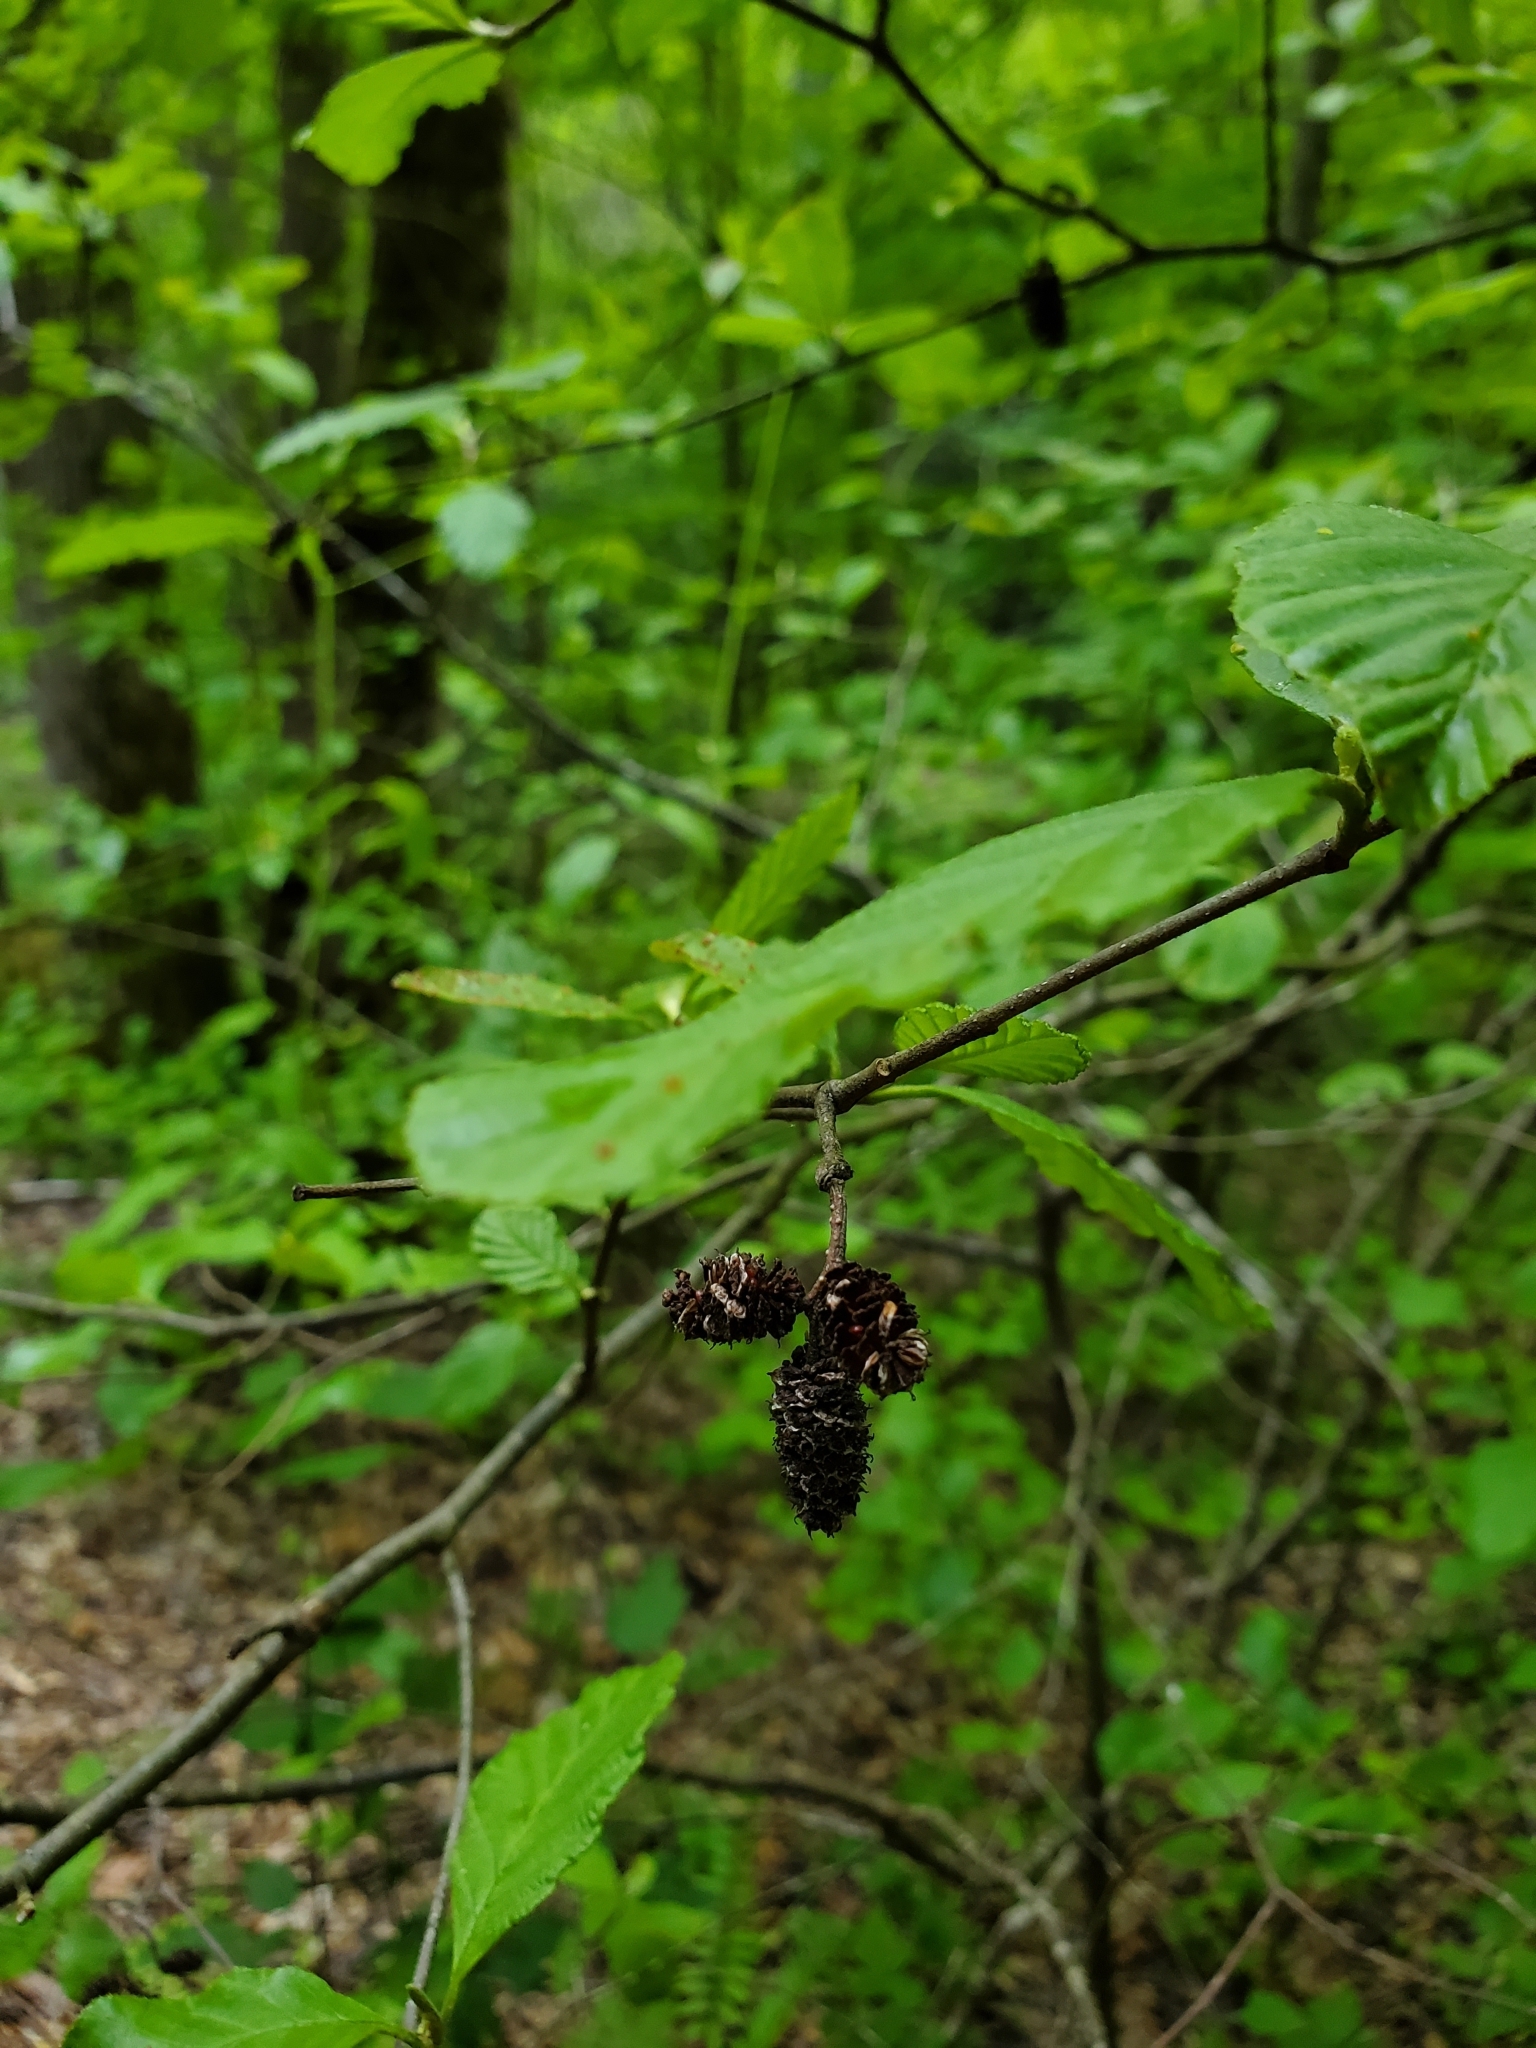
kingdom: Plantae
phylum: Tracheophyta
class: Magnoliopsida
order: Fagales
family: Betulaceae
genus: Alnus
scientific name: Alnus serrulata
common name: Hazel alder
